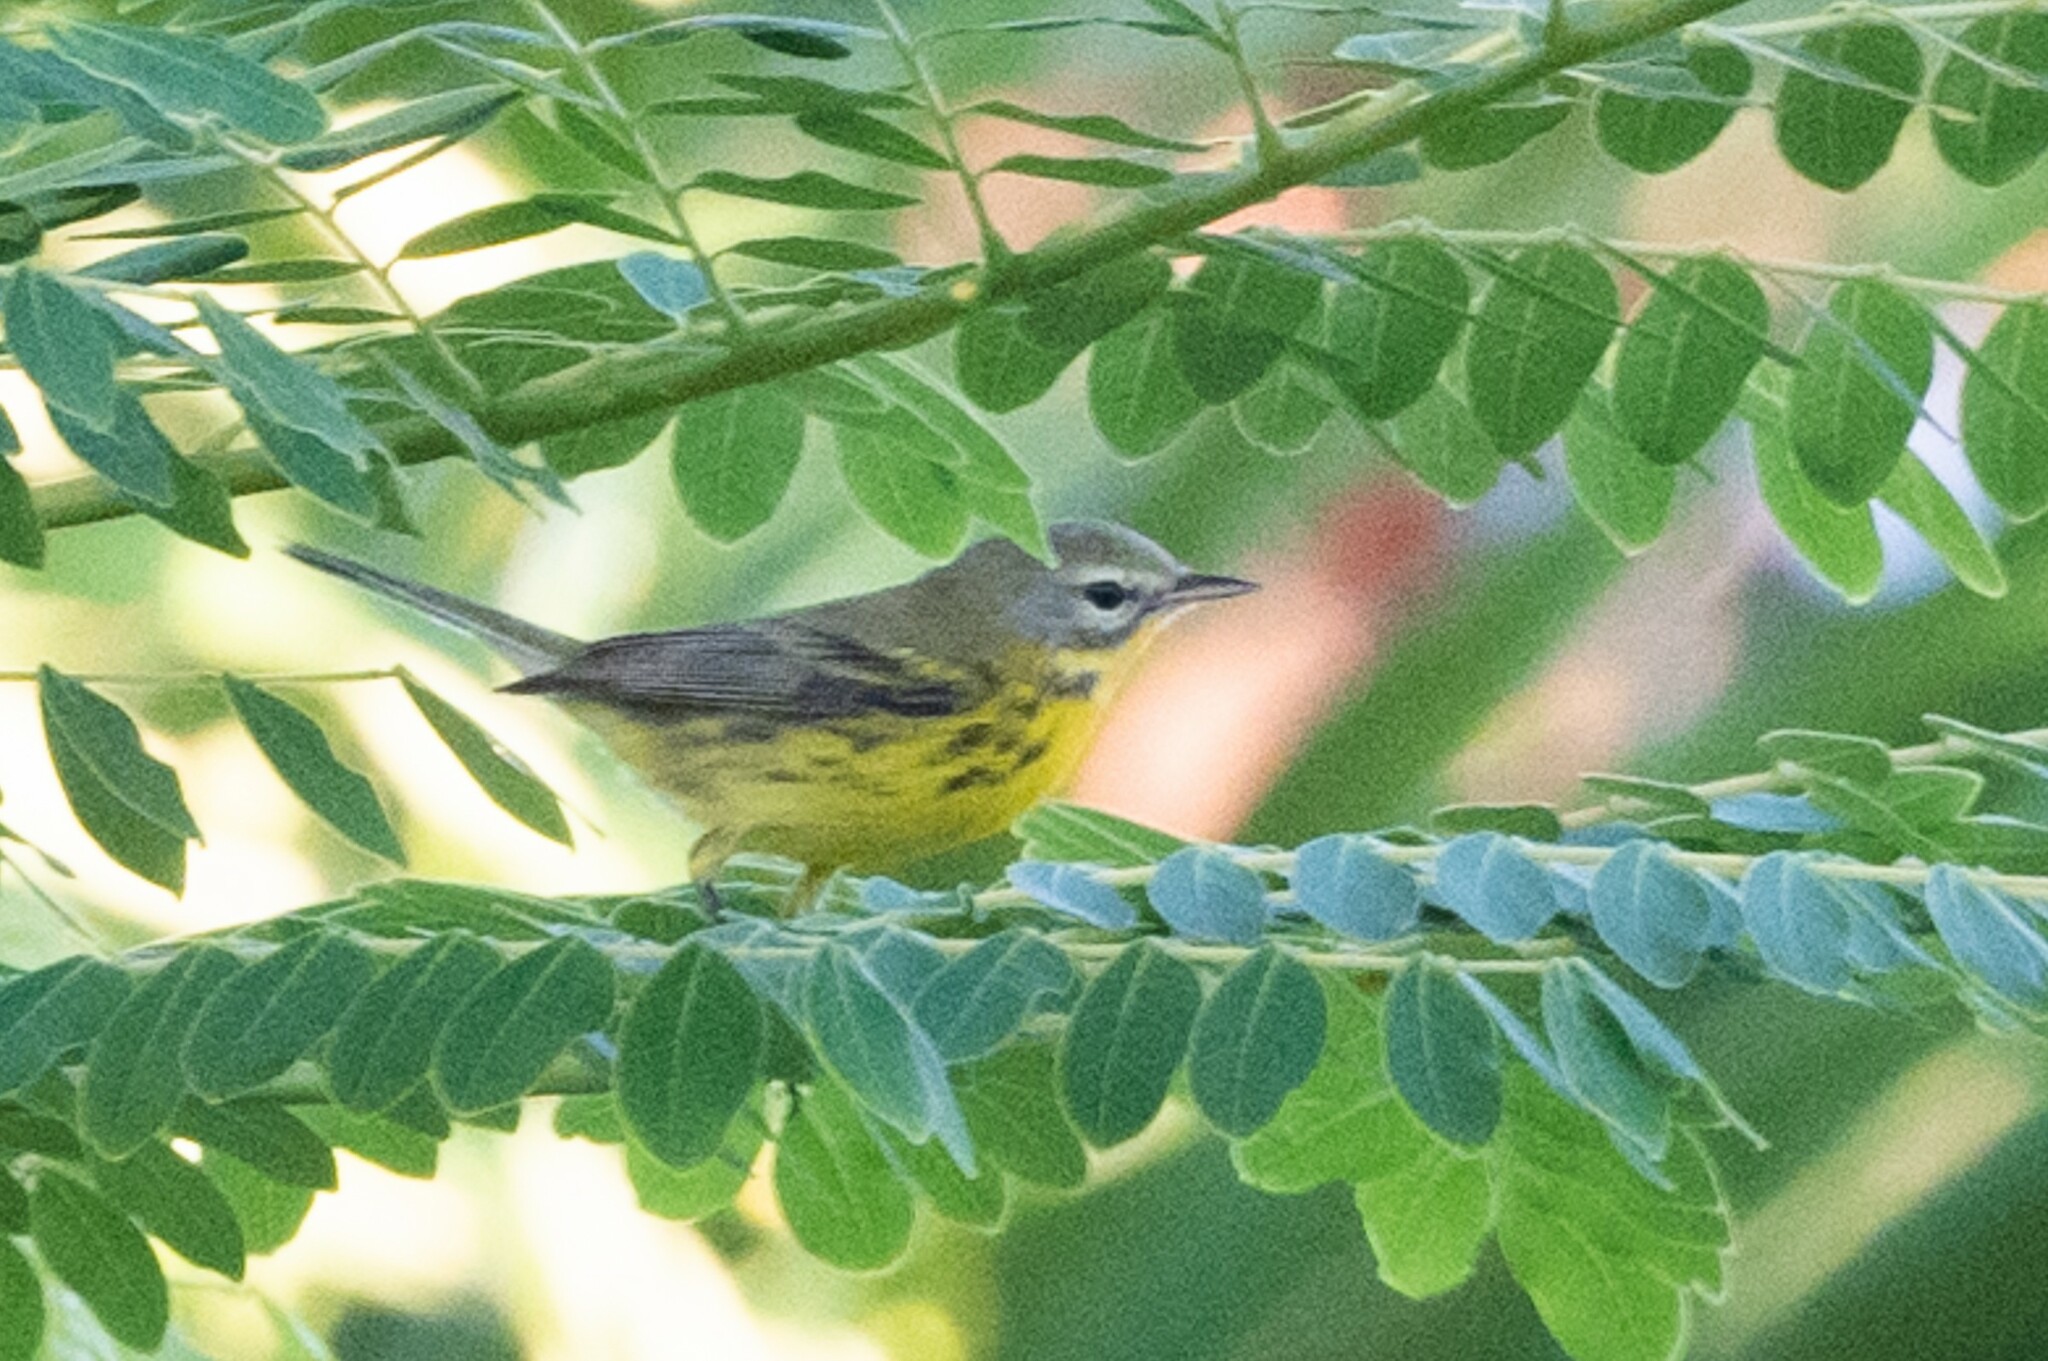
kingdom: Animalia
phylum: Chordata
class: Aves
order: Passeriformes
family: Parulidae
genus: Setophaga
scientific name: Setophaga discolor
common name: Prairie warbler
